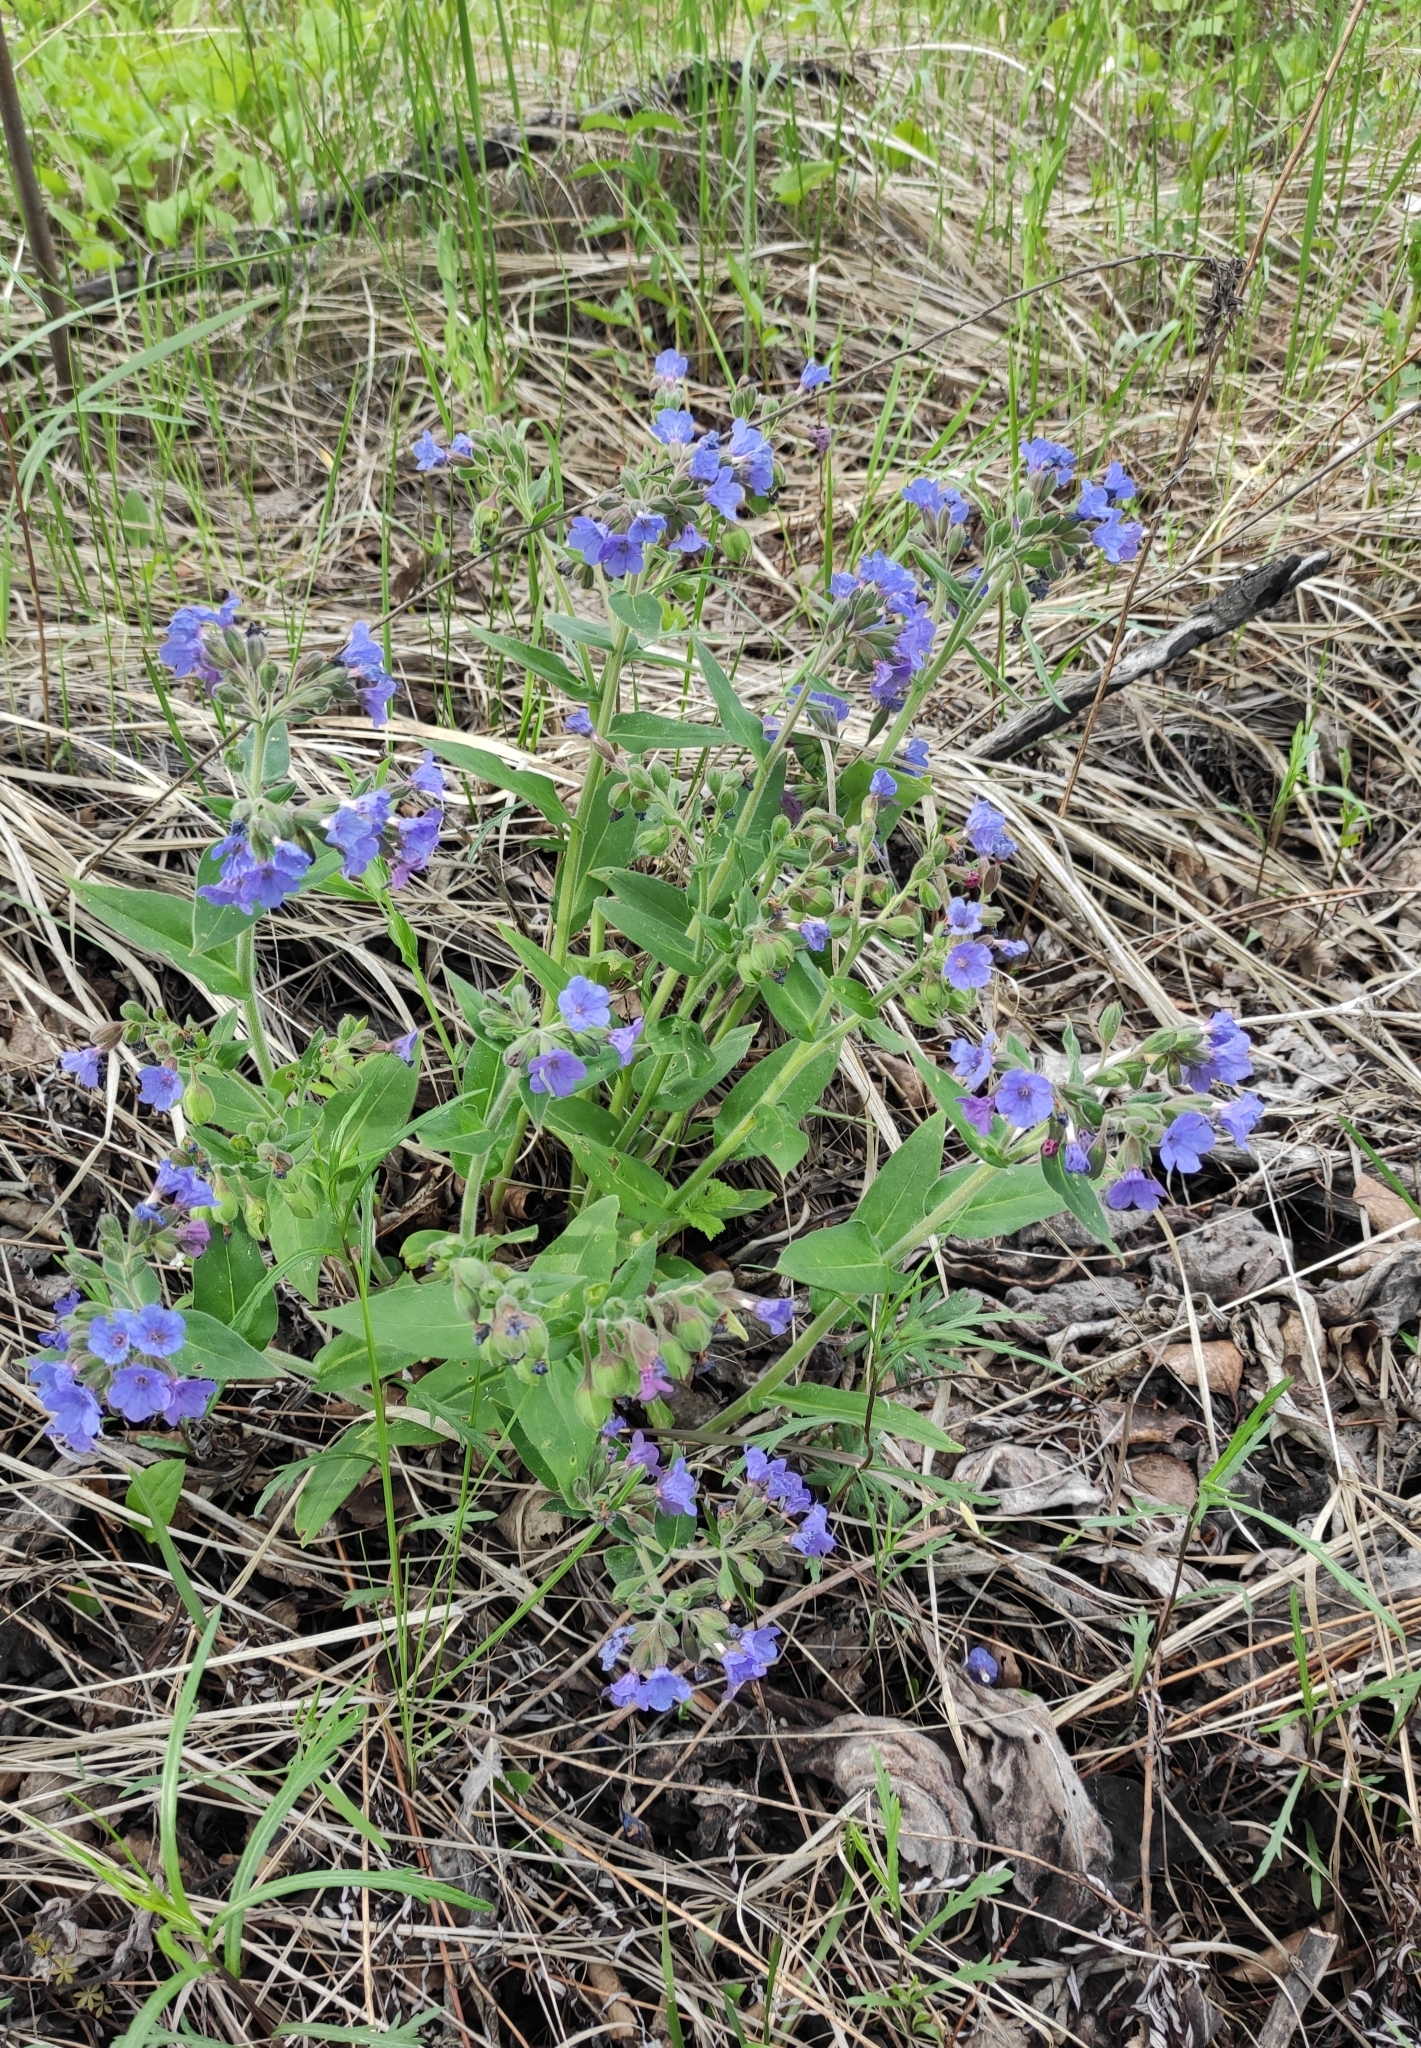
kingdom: Plantae
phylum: Tracheophyta
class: Magnoliopsida
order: Boraginales
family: Boraginaceae
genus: Pulmonaria
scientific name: Pulmonaria mollis
